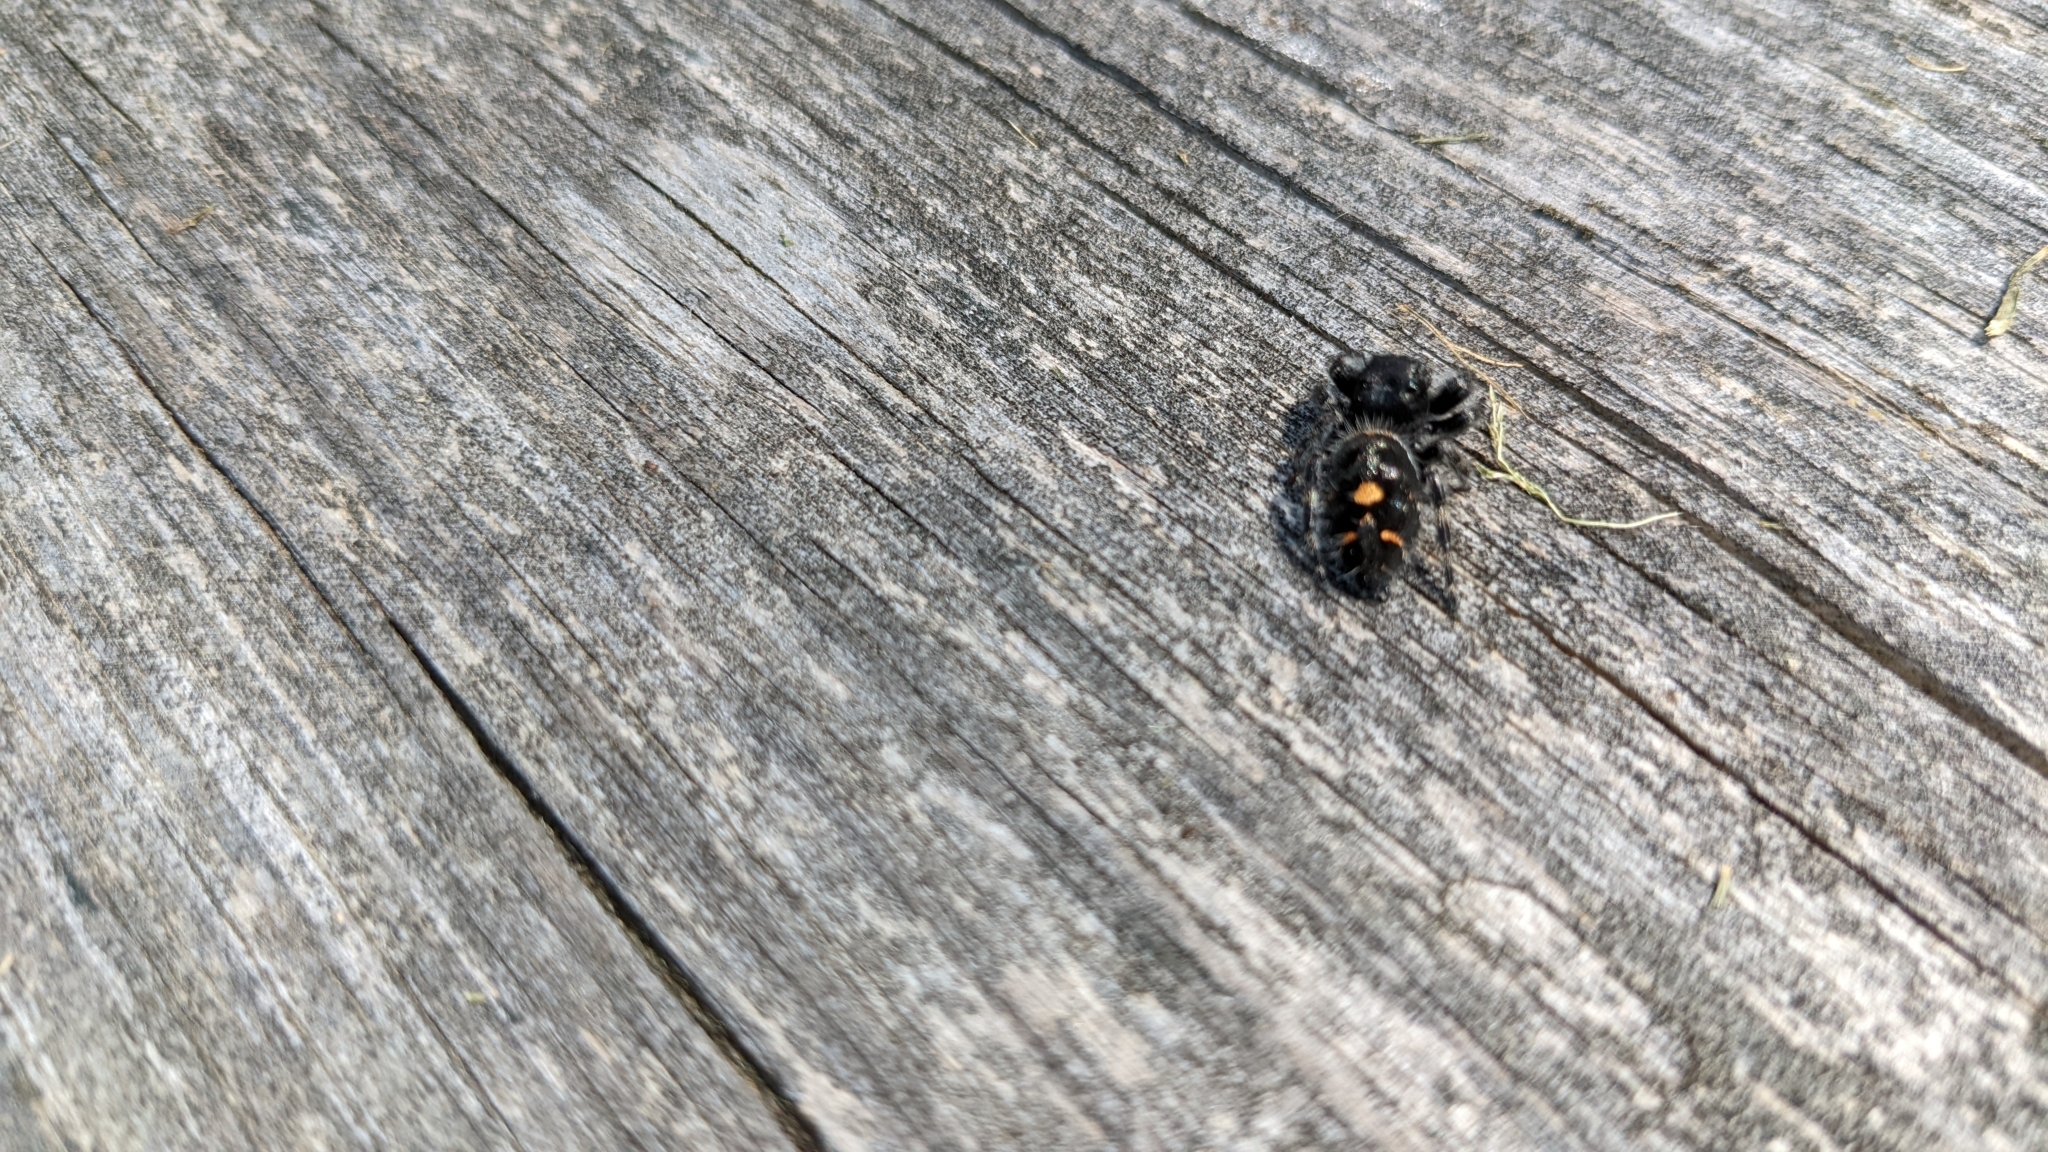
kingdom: Animalia
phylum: Arthropoda
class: Arachnida
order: Araneae
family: Salticidae
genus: Phidippus
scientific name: Phidippus audax
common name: Bold jumper
